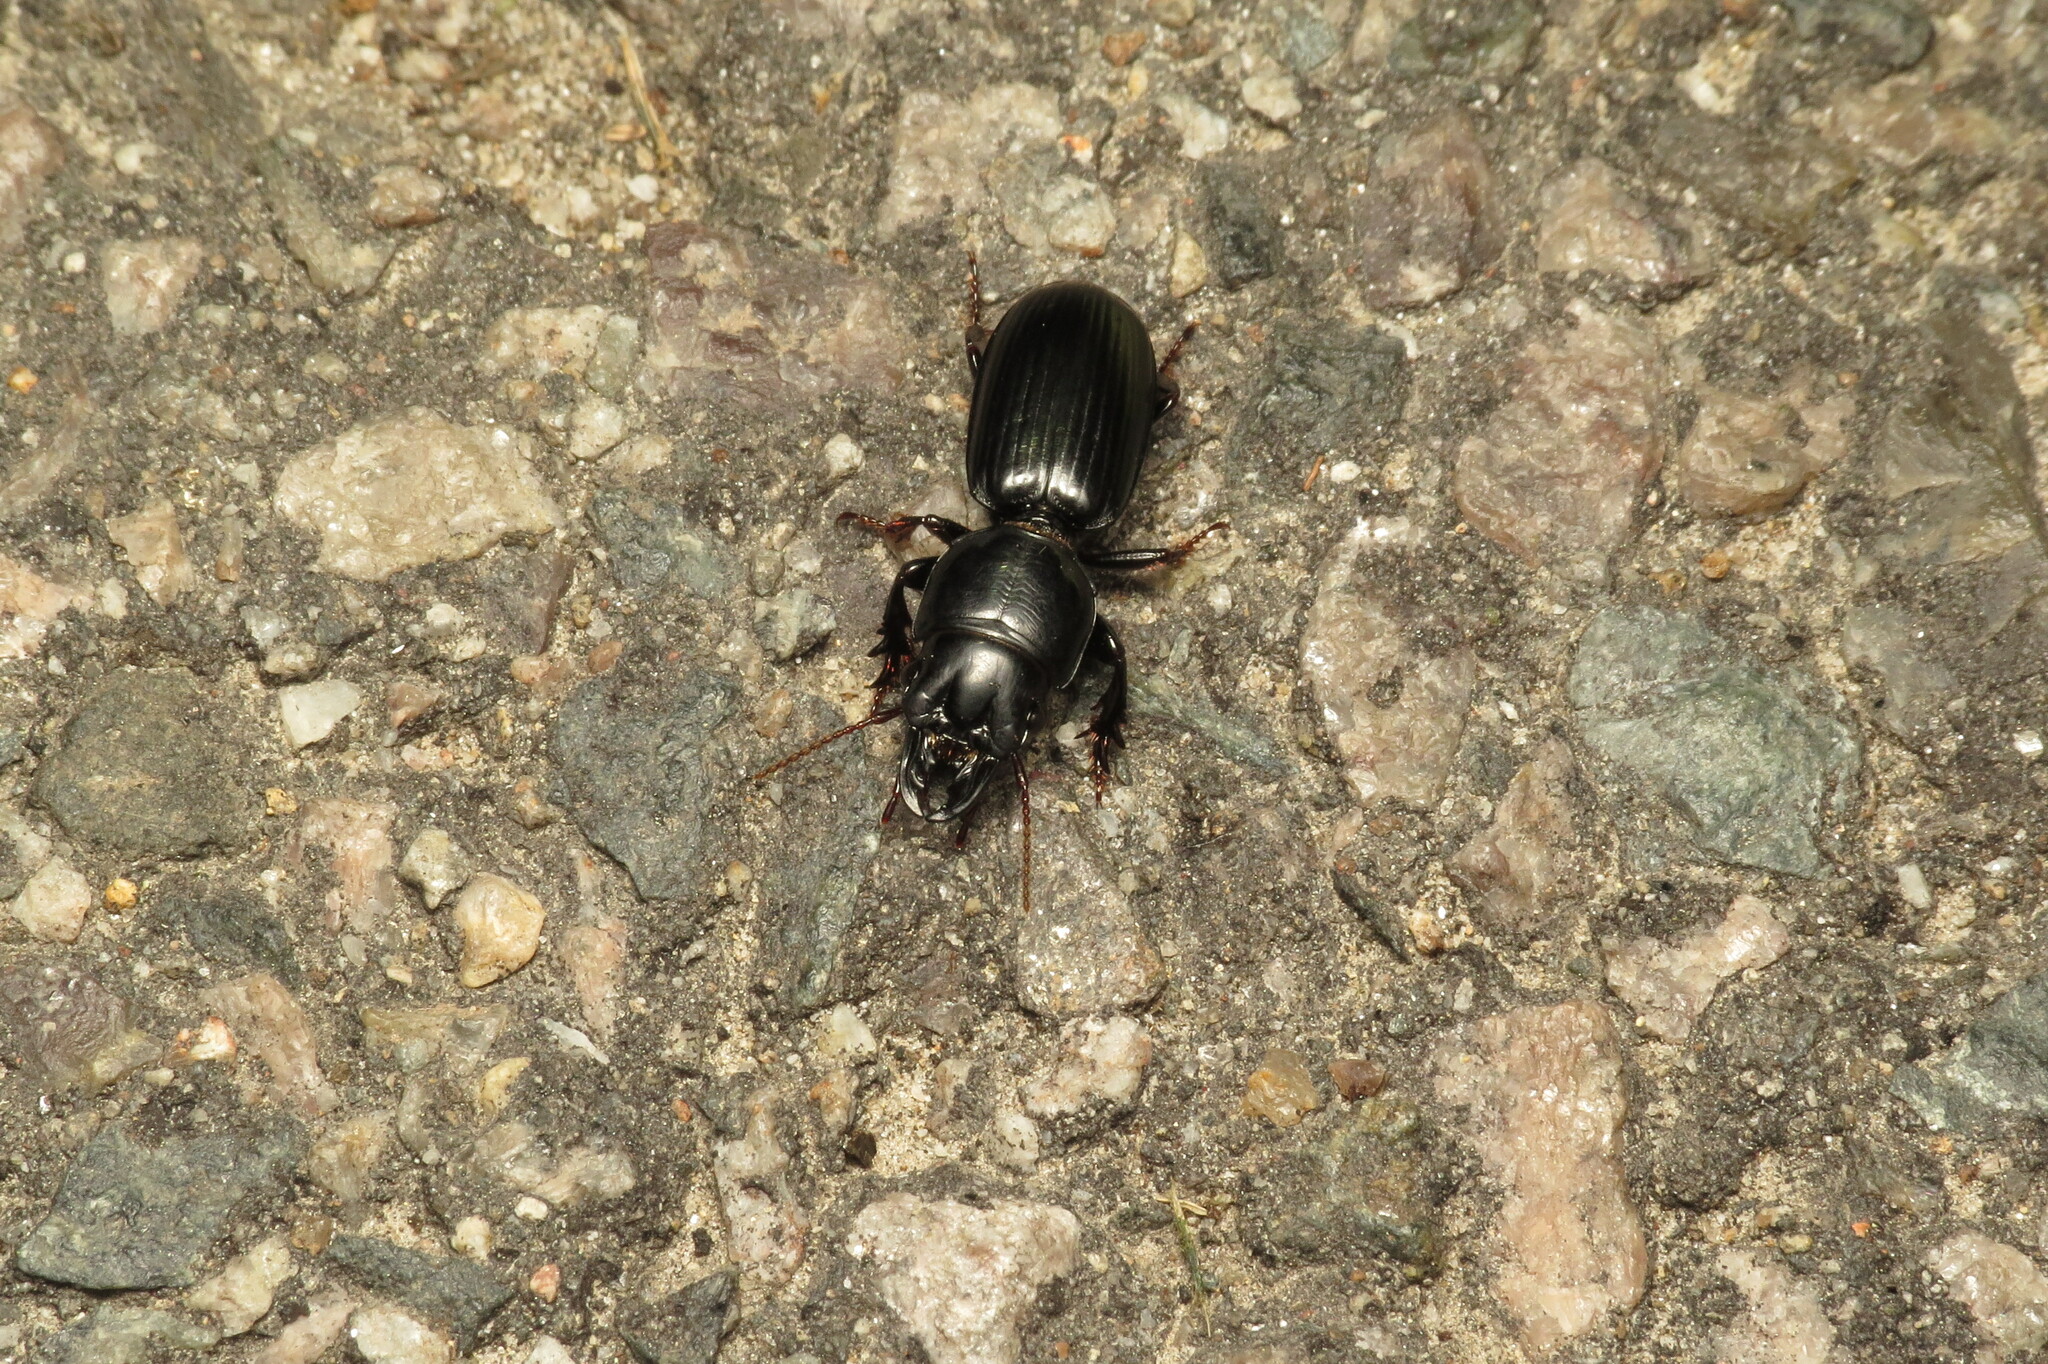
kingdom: Animalia
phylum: Arthropoda
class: Insecta
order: Coleoptera
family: Carabidae
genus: Scarites
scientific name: Scarites subterraneus
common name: Big-headed ground beetle
